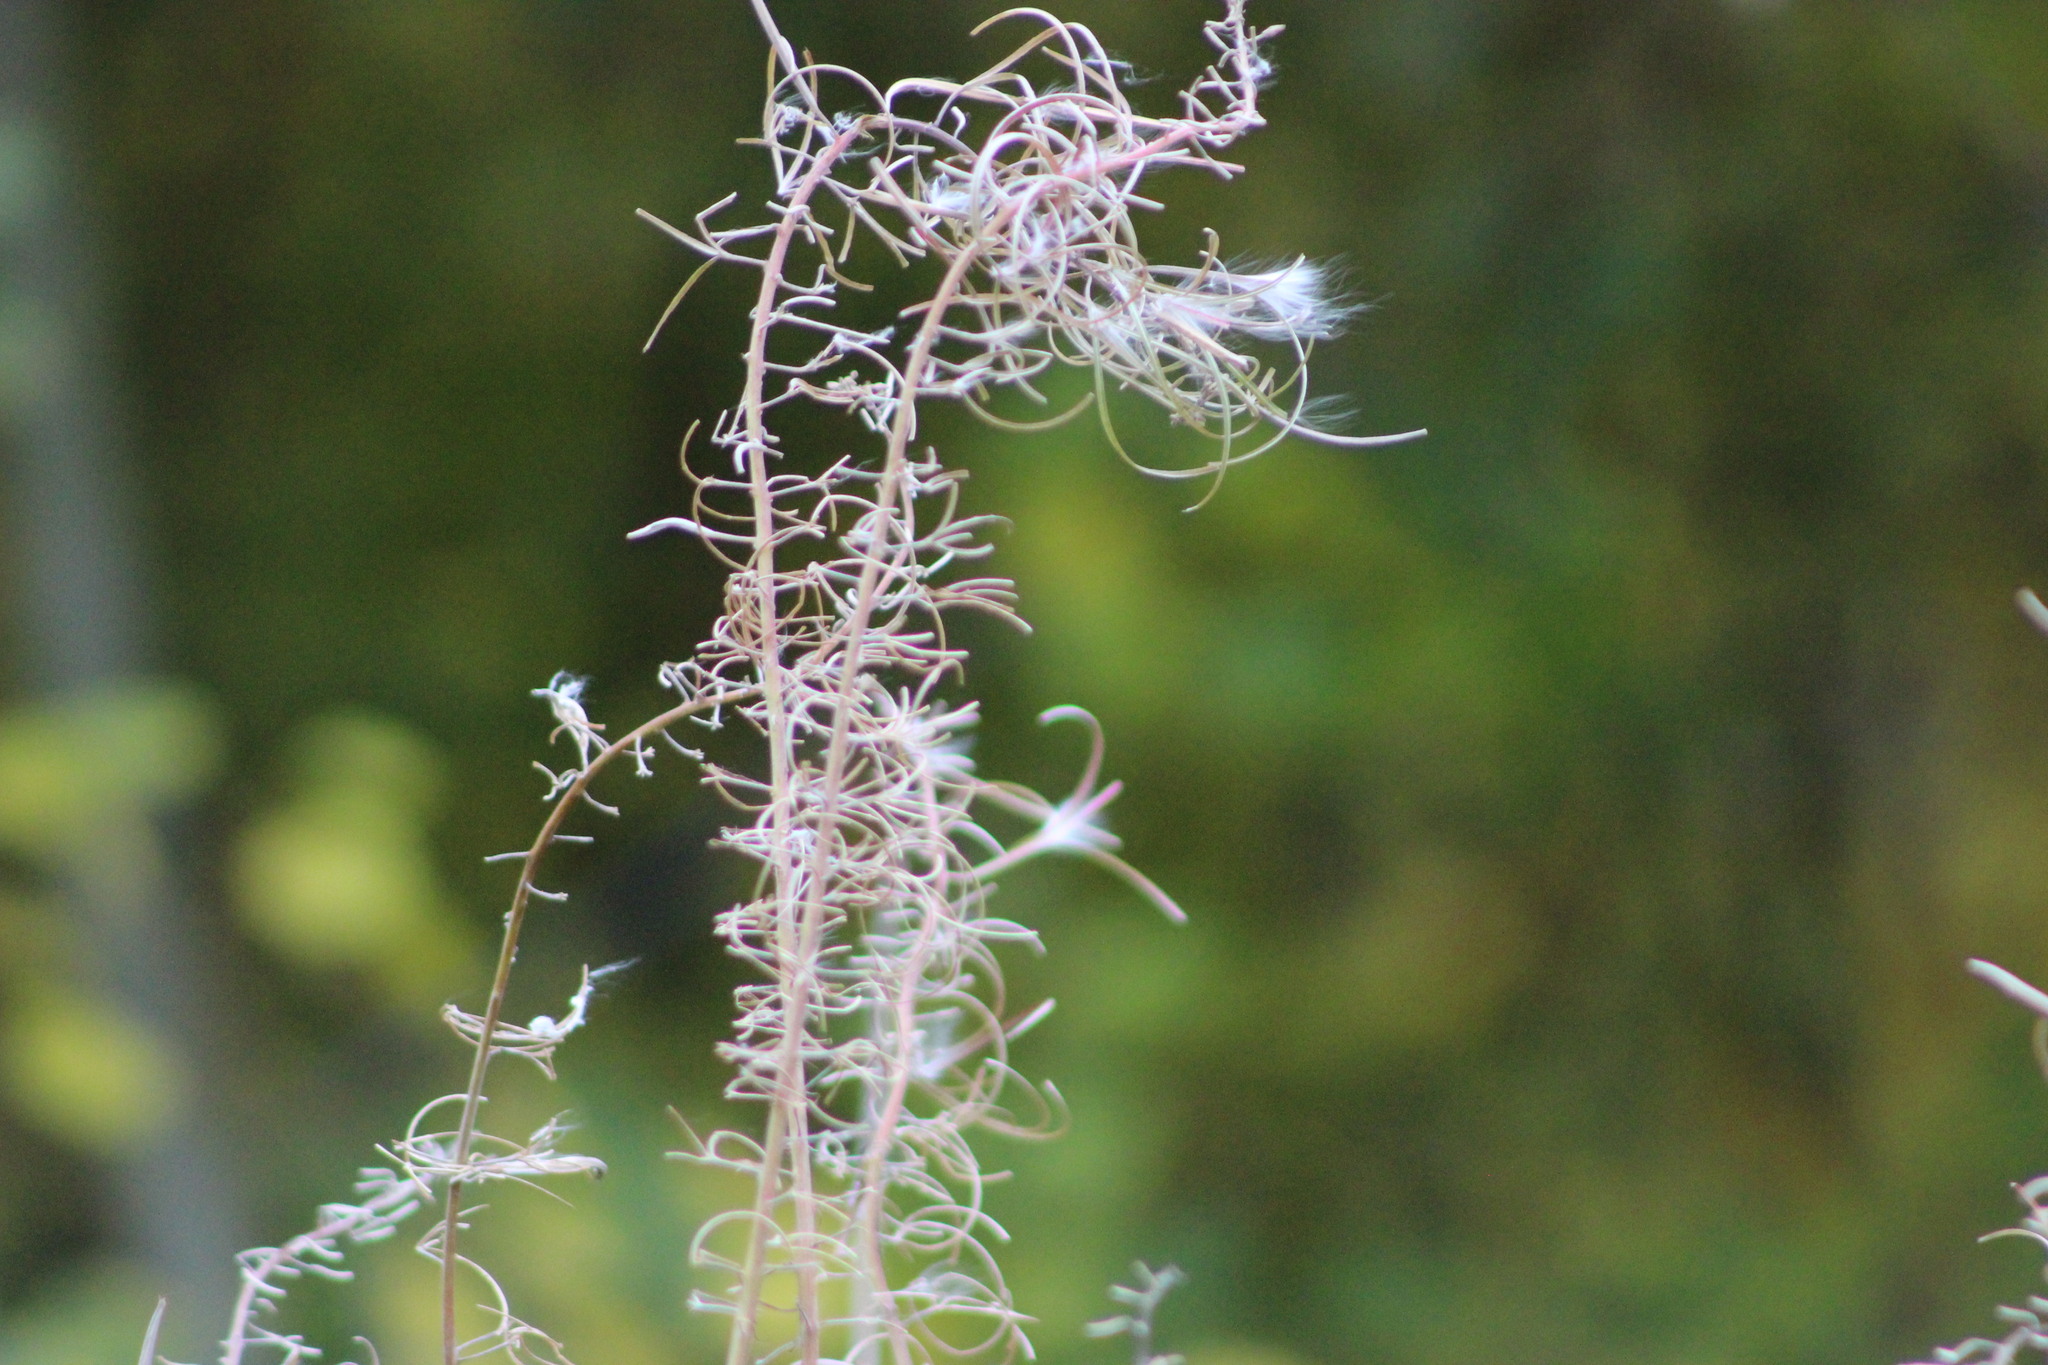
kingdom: Plantae
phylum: Tracheophyta
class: Magnoliopsida
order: Myrtales
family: Onagraceae
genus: Chamaenerion
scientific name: Chamaenerion angustifolium
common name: Fireweed
